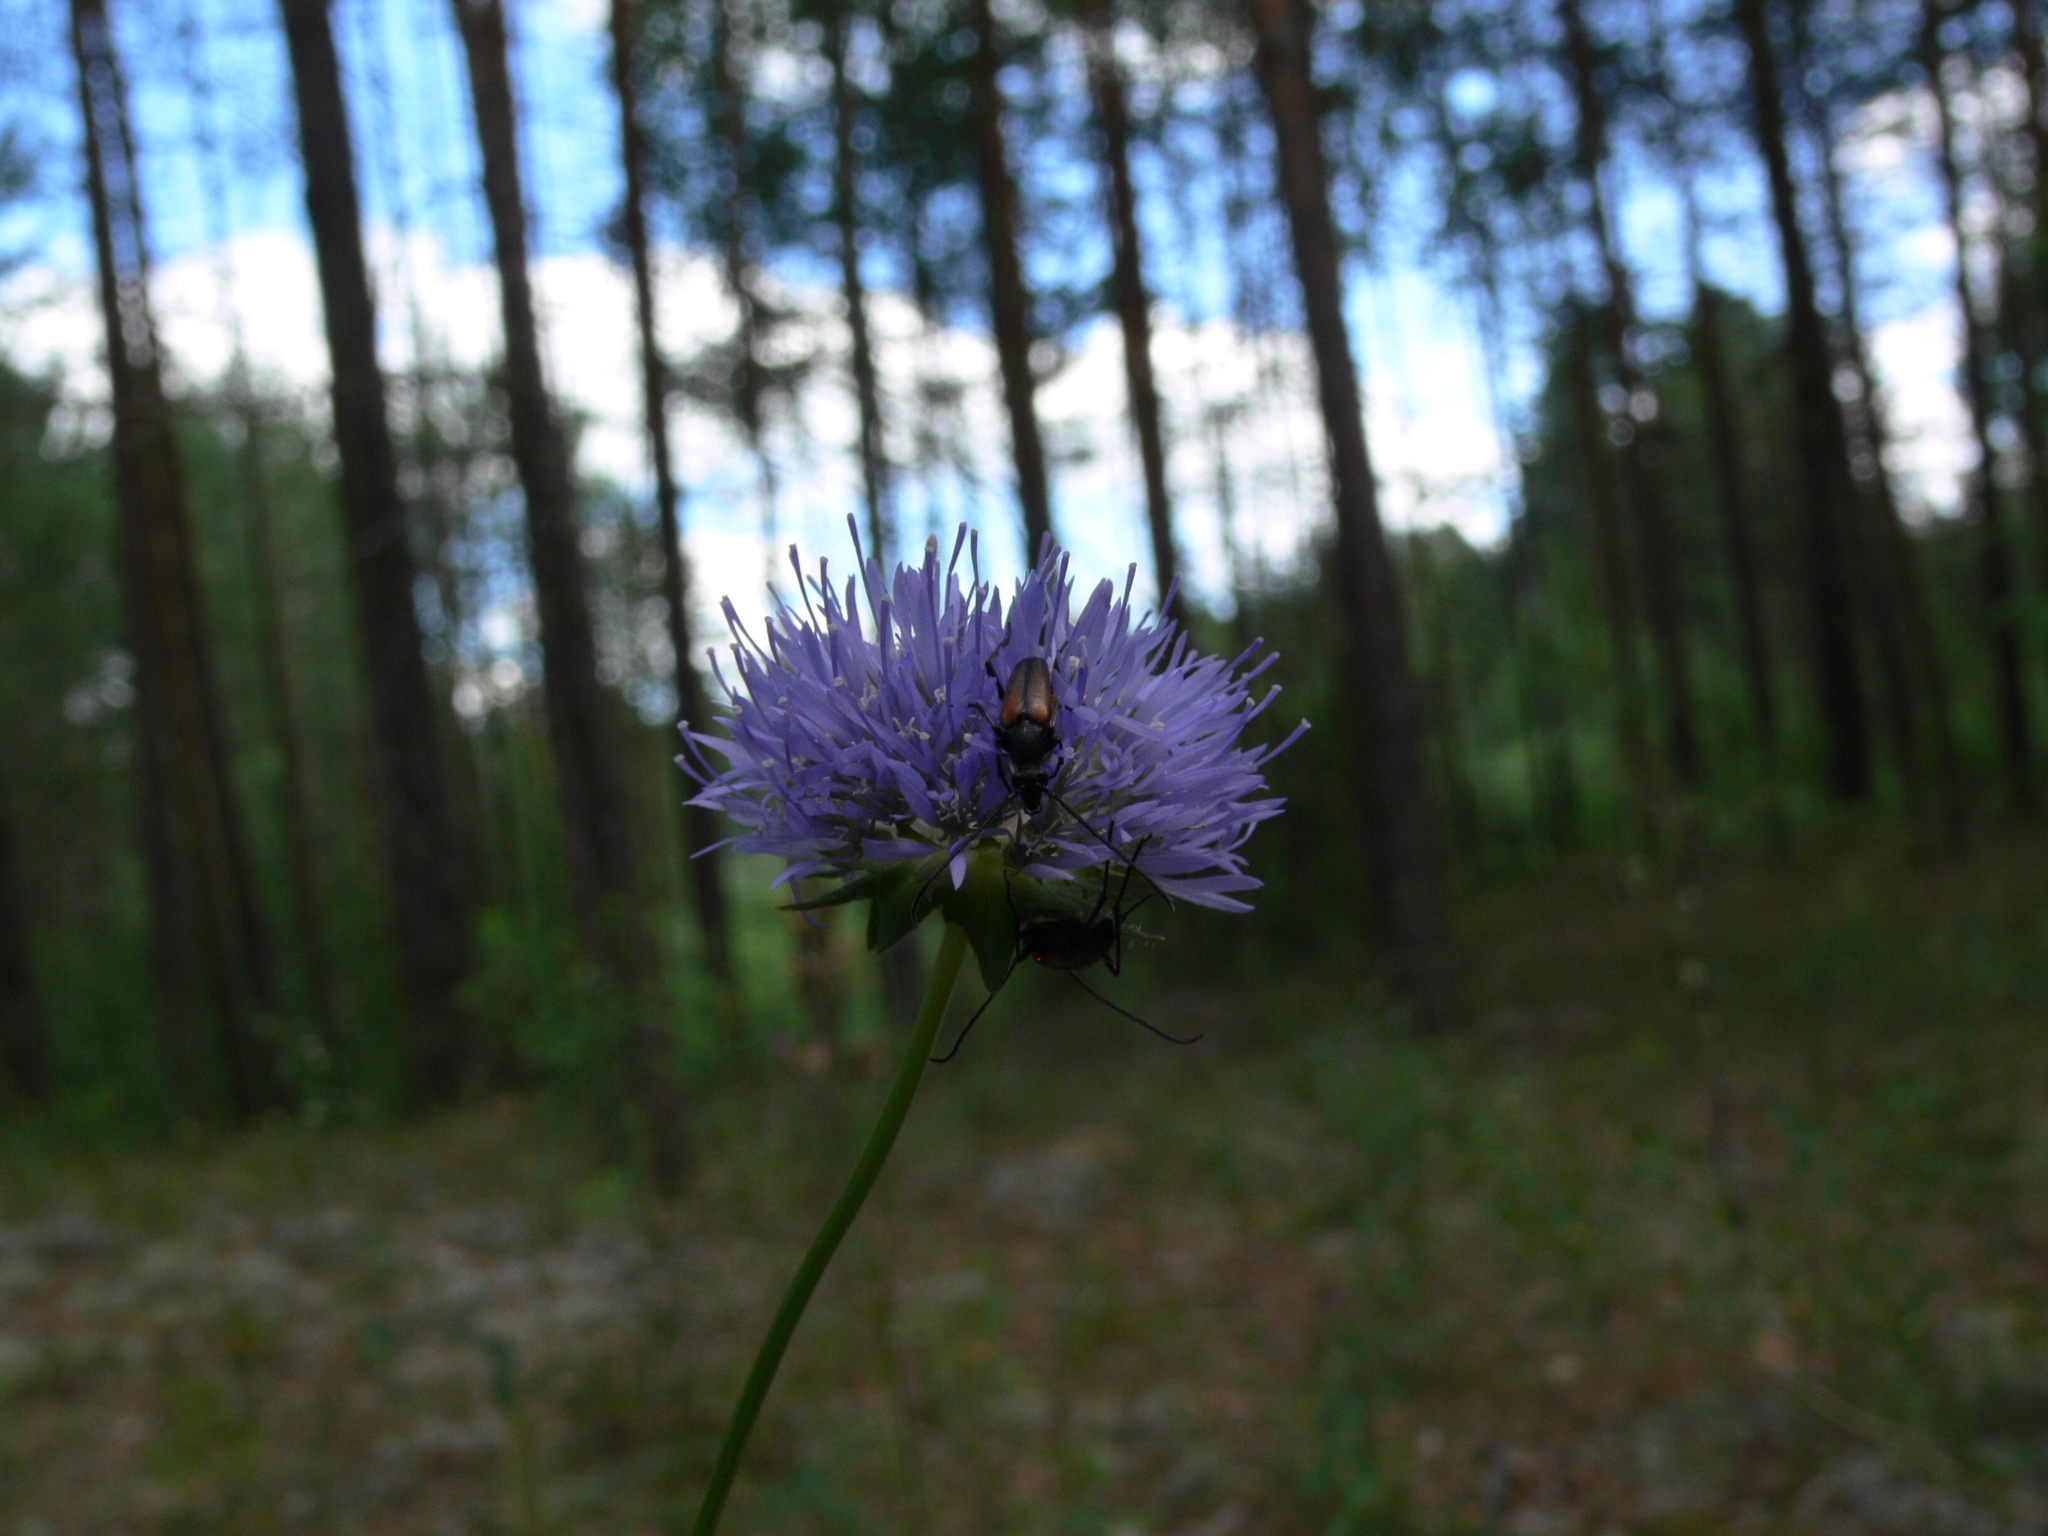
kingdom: Plantae
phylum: Tracheophyta
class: Magnoliopsida
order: Asterales
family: Campanulaceae
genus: Jasione
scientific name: Jasione montana
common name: Sheep's-bit
